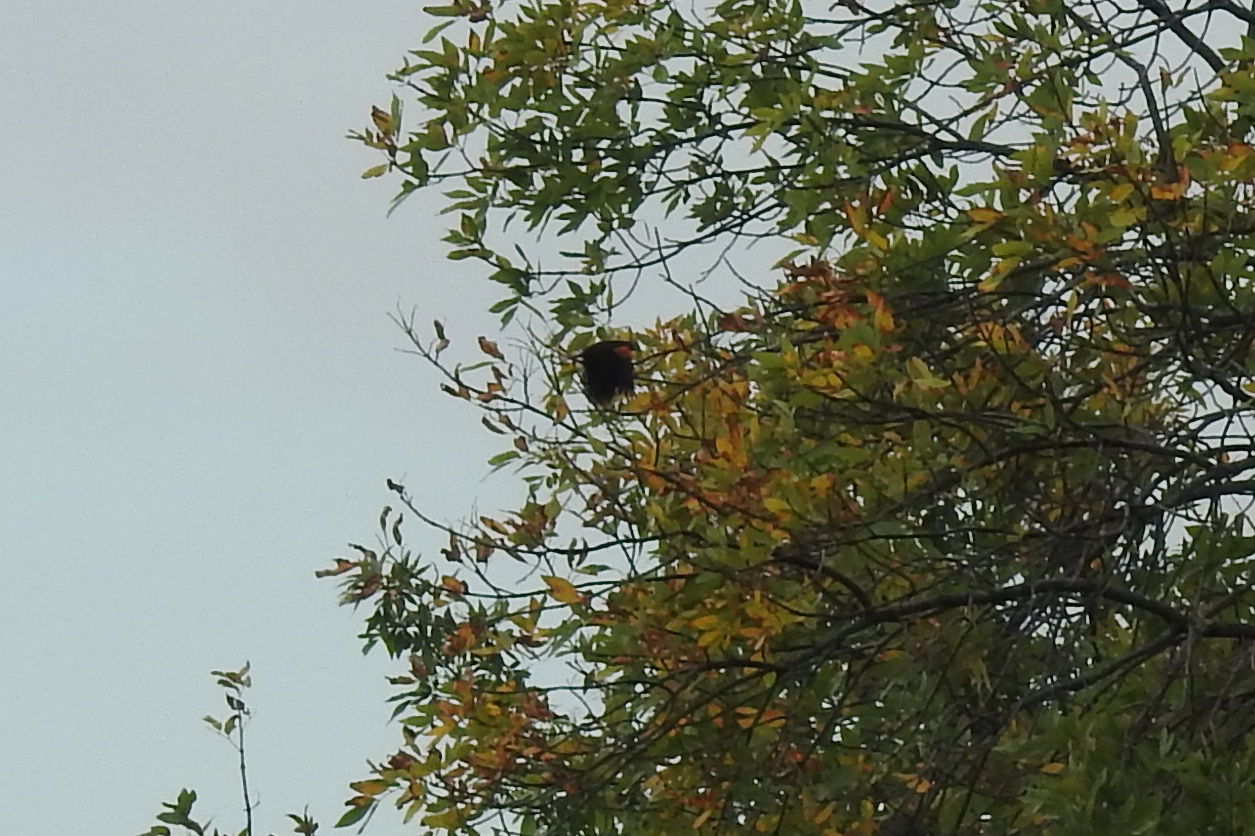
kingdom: Animalia
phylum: Chordata
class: Aves
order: Passeriformes
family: Icteridae
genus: Agelaius
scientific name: Agelaius phoeniceus
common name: Red-winged blackbird
